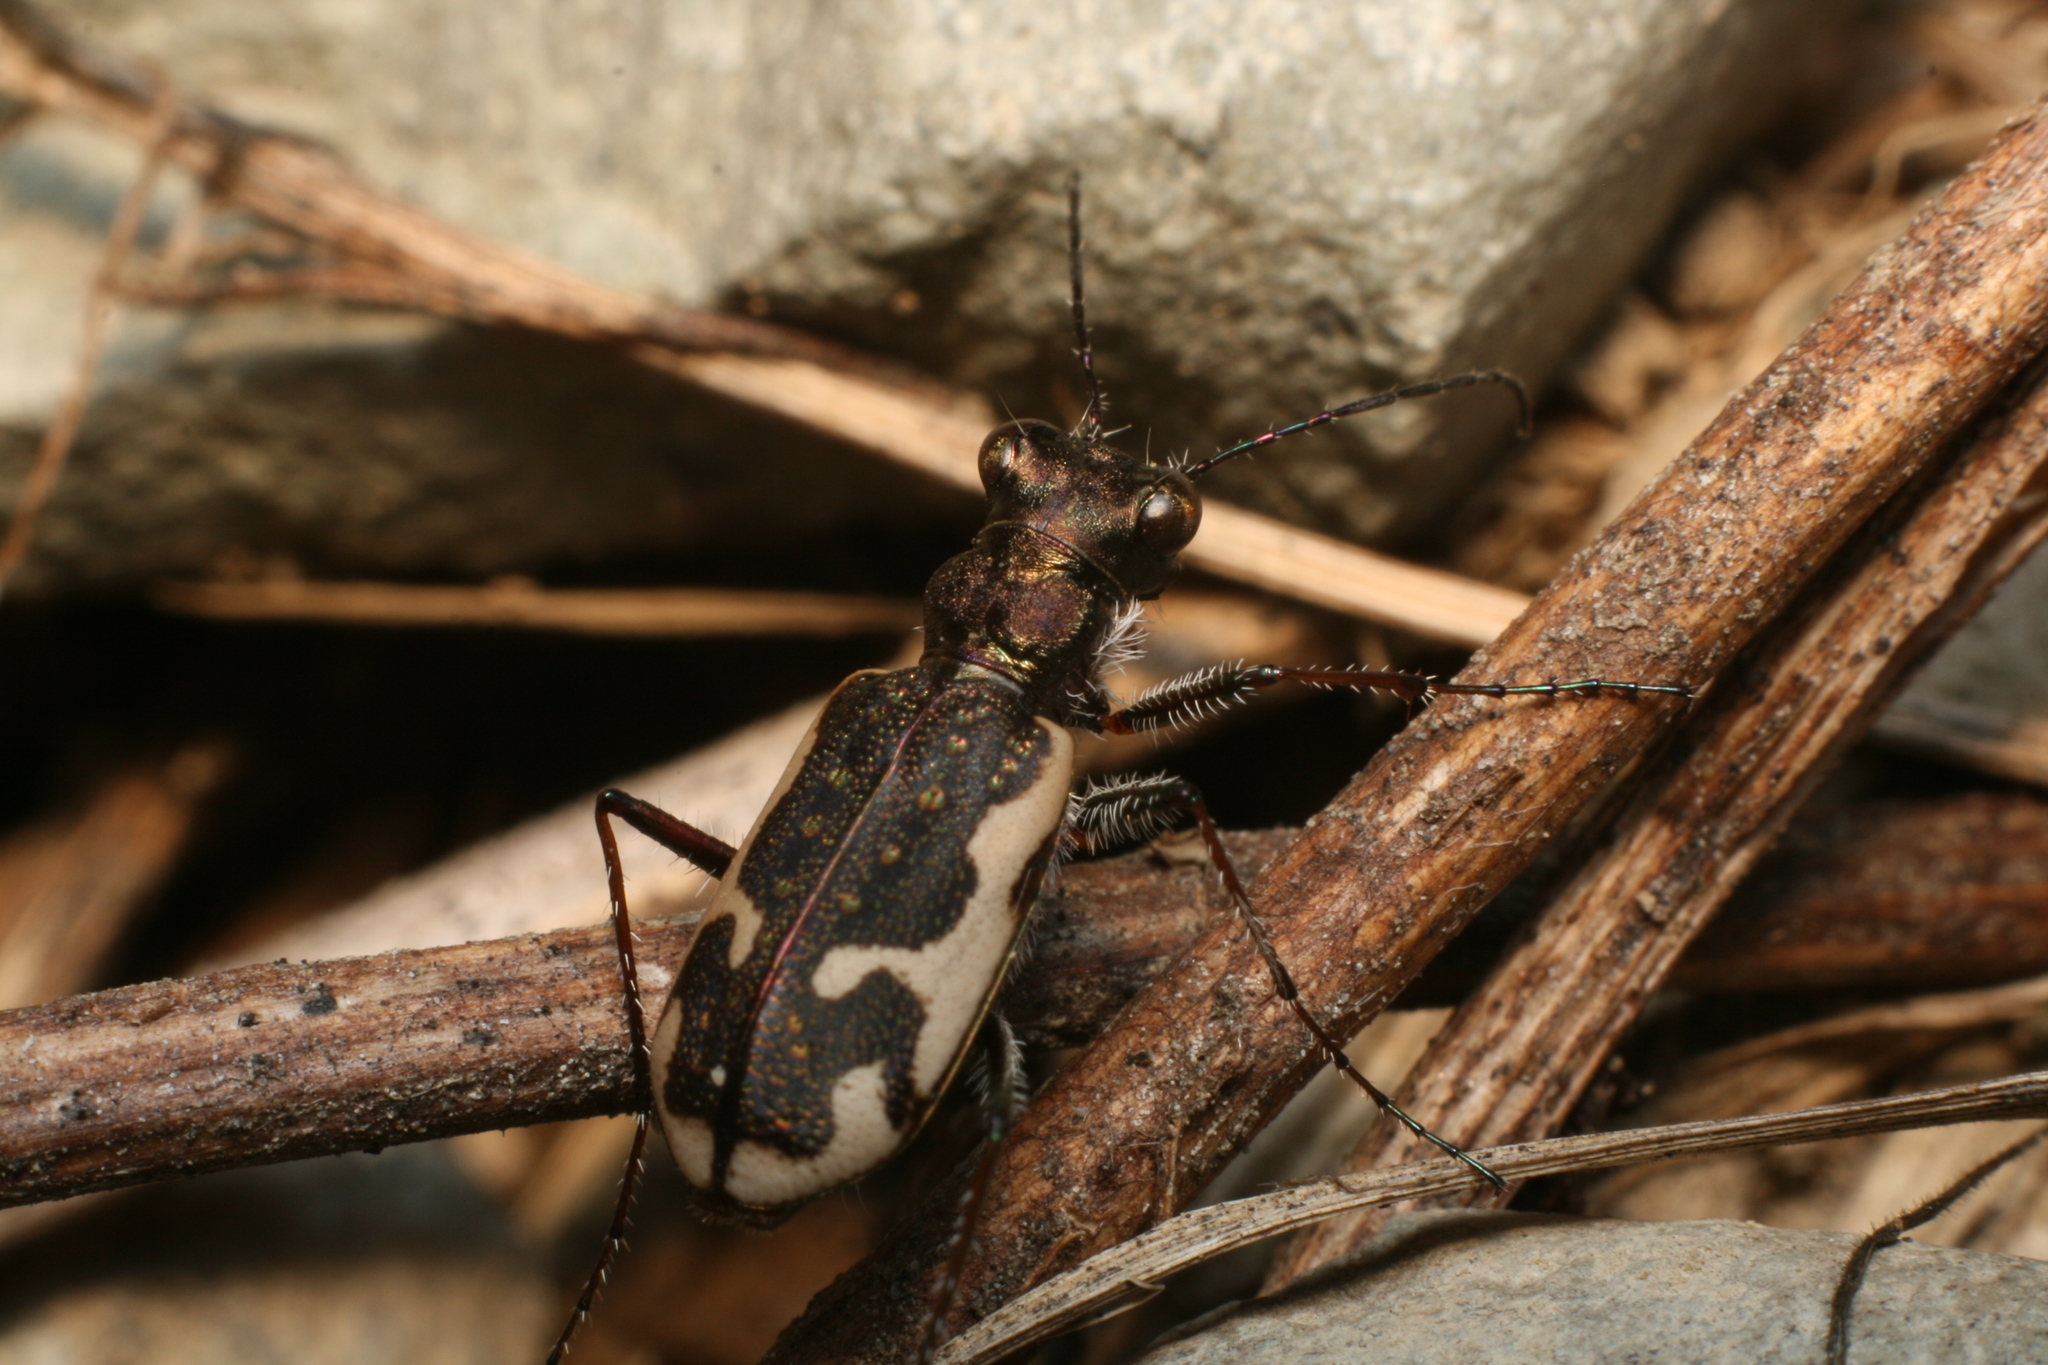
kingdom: Animalia
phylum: Arthropoda
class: Insecta
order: Coleoptera
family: Carabidae
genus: Neocicindela
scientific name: Neocicindela tuberculata
